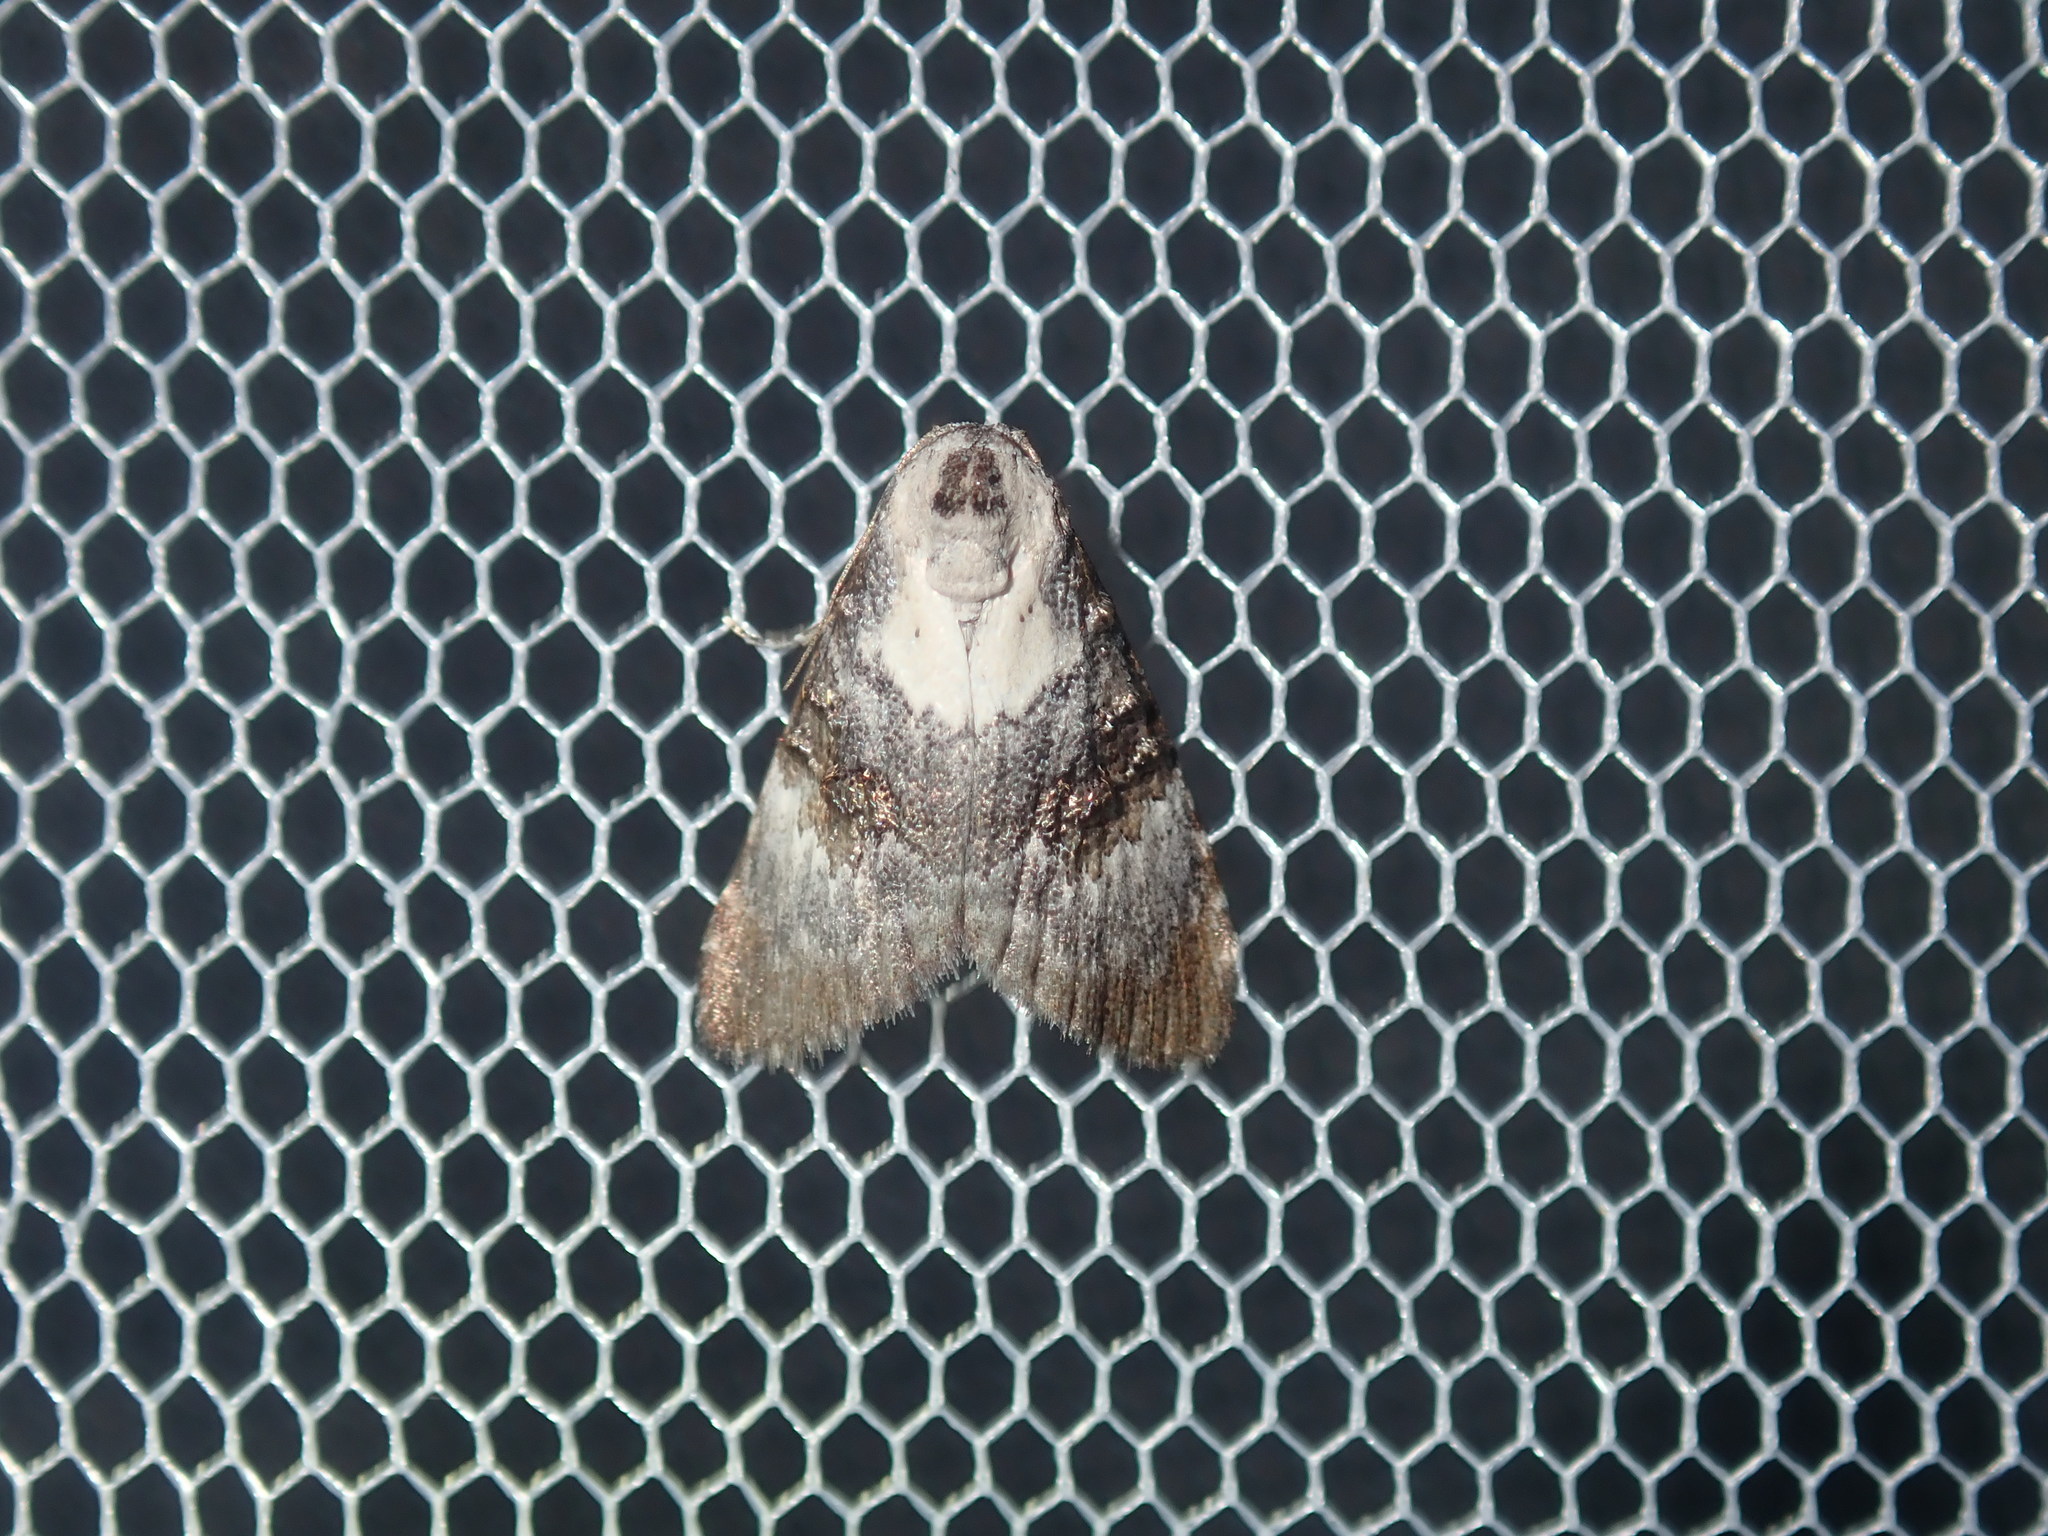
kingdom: Animalia
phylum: Arthropoda
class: Insecta
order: Lepidoptera
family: Nolidae
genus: Acatapaustus
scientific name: Acatapaustus leucospila
